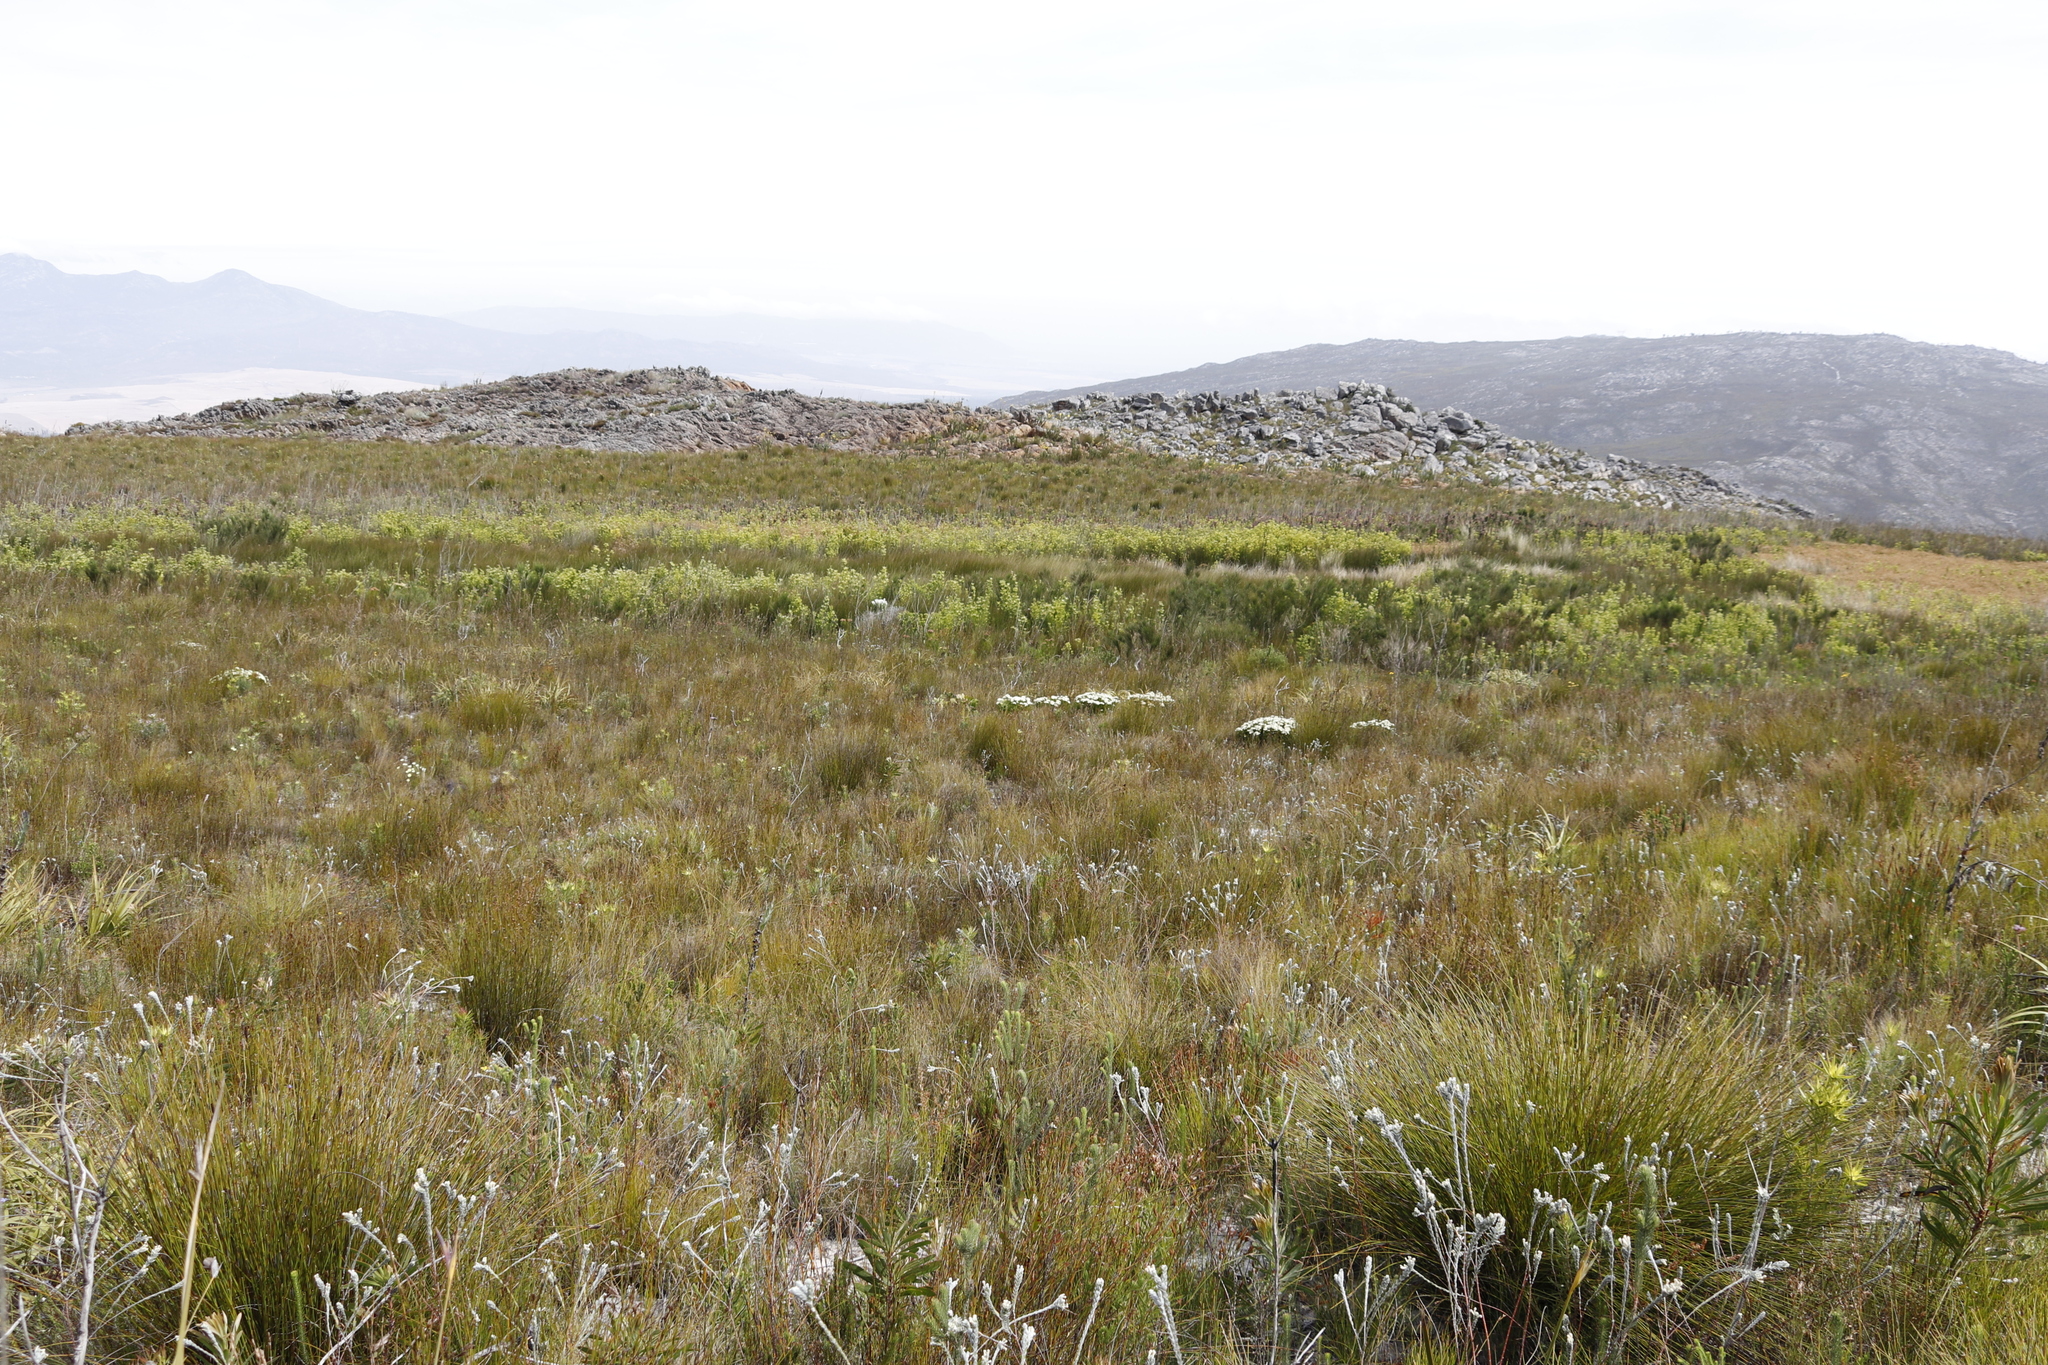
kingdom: Plantae
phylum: Tracheophyta
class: Magnoliopsida
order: Proteales
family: Proteaceae
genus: Leucadendron
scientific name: Leucadendron xanthoconus
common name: Sickle-leaf conebush
